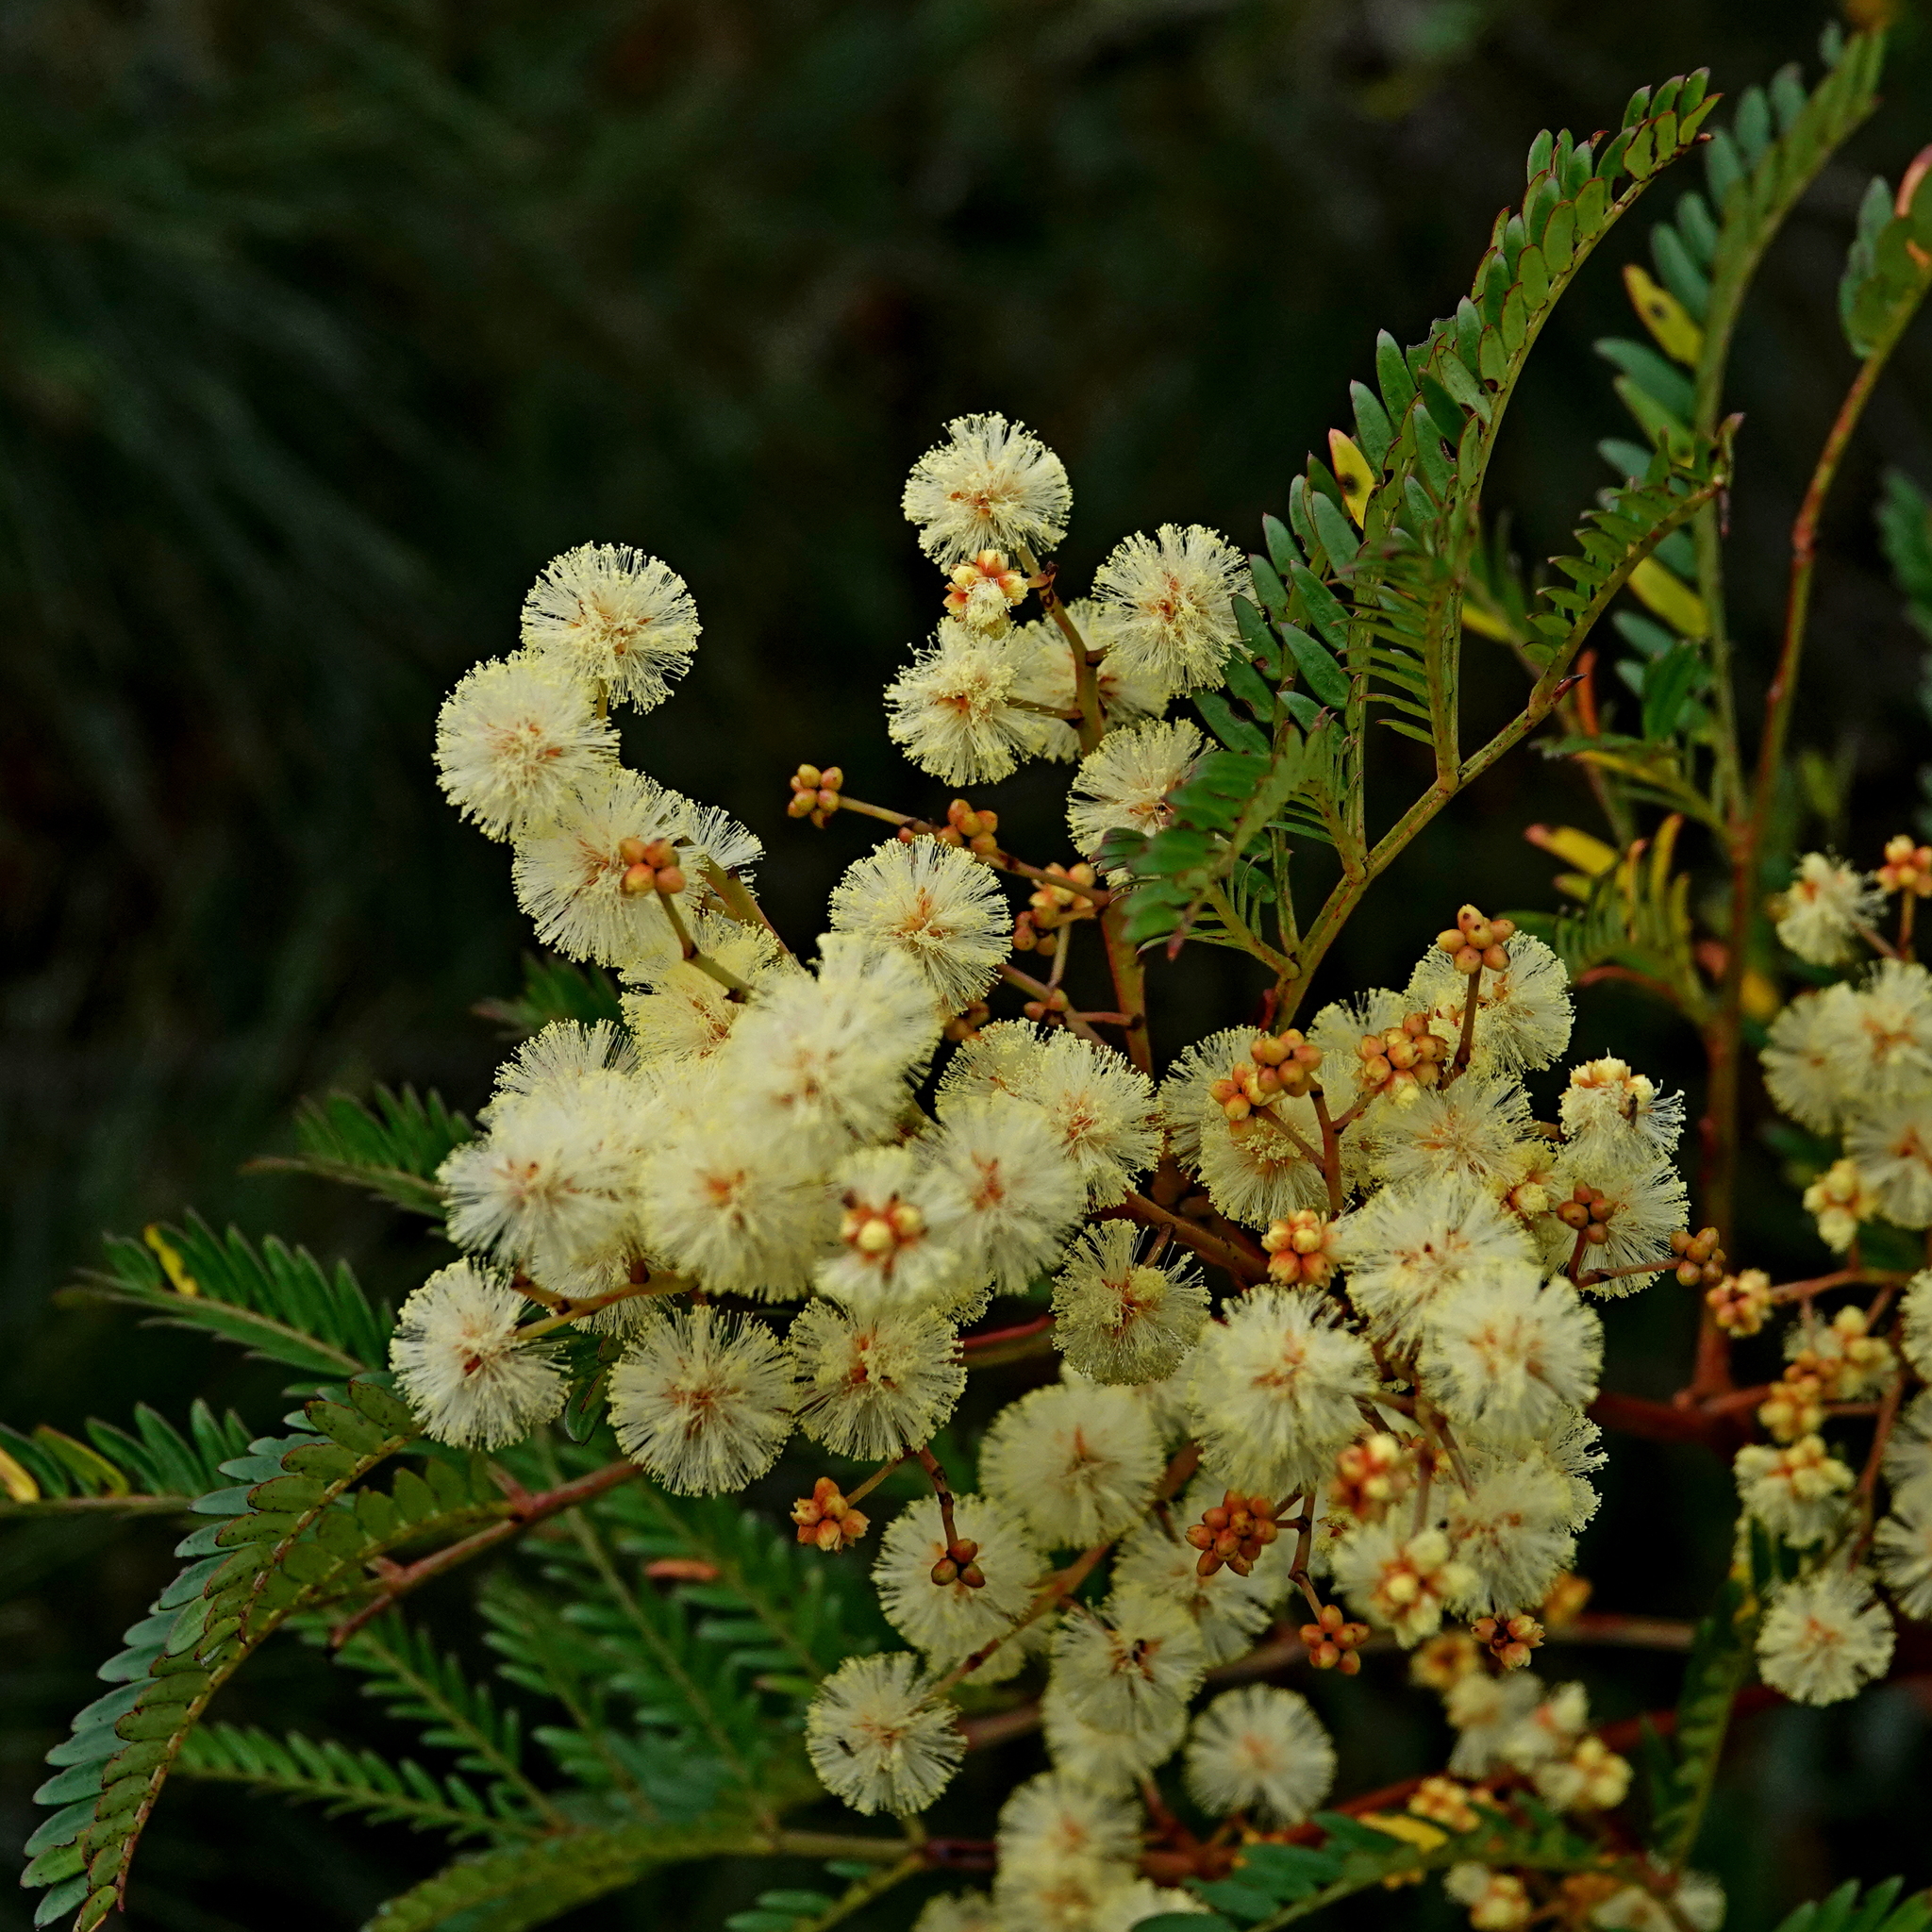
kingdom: Plantae
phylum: Tracheophyta
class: Magnoliopsida
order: Fabales
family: Fabaceae
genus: Acacia
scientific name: Acacia terminalis
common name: Cedar wattle
